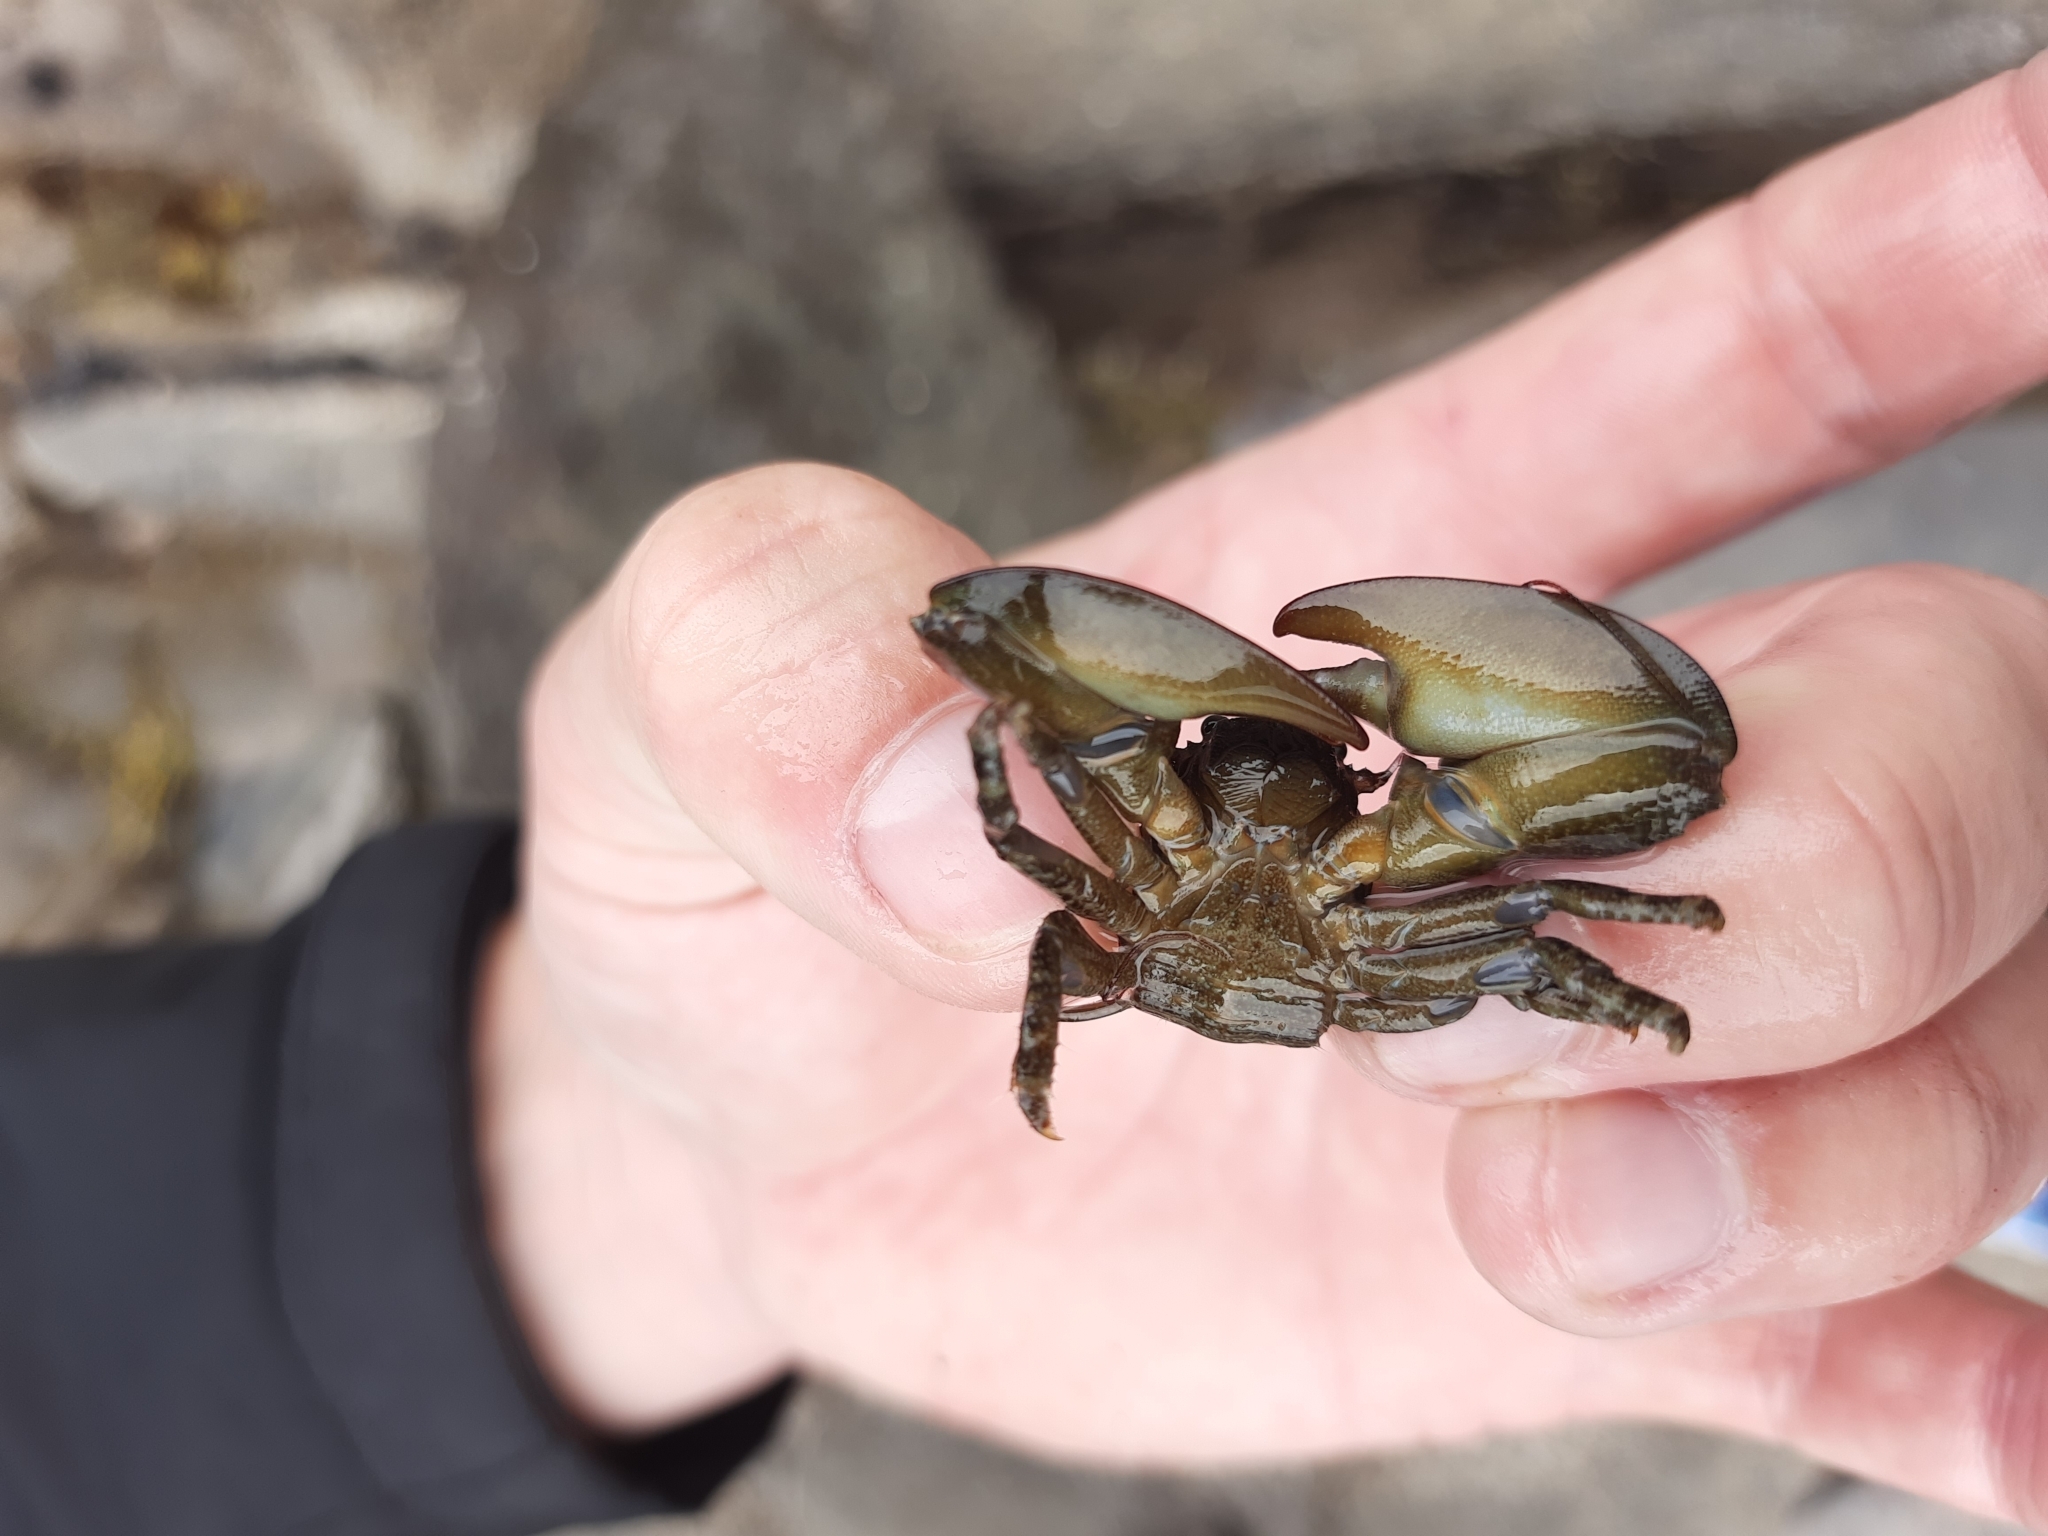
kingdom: Animalia
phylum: Arthropoda
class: Malacostraca
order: Decapoda
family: Porcellanidae
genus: Petrolisthes
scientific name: Petrolisthes elongatus
